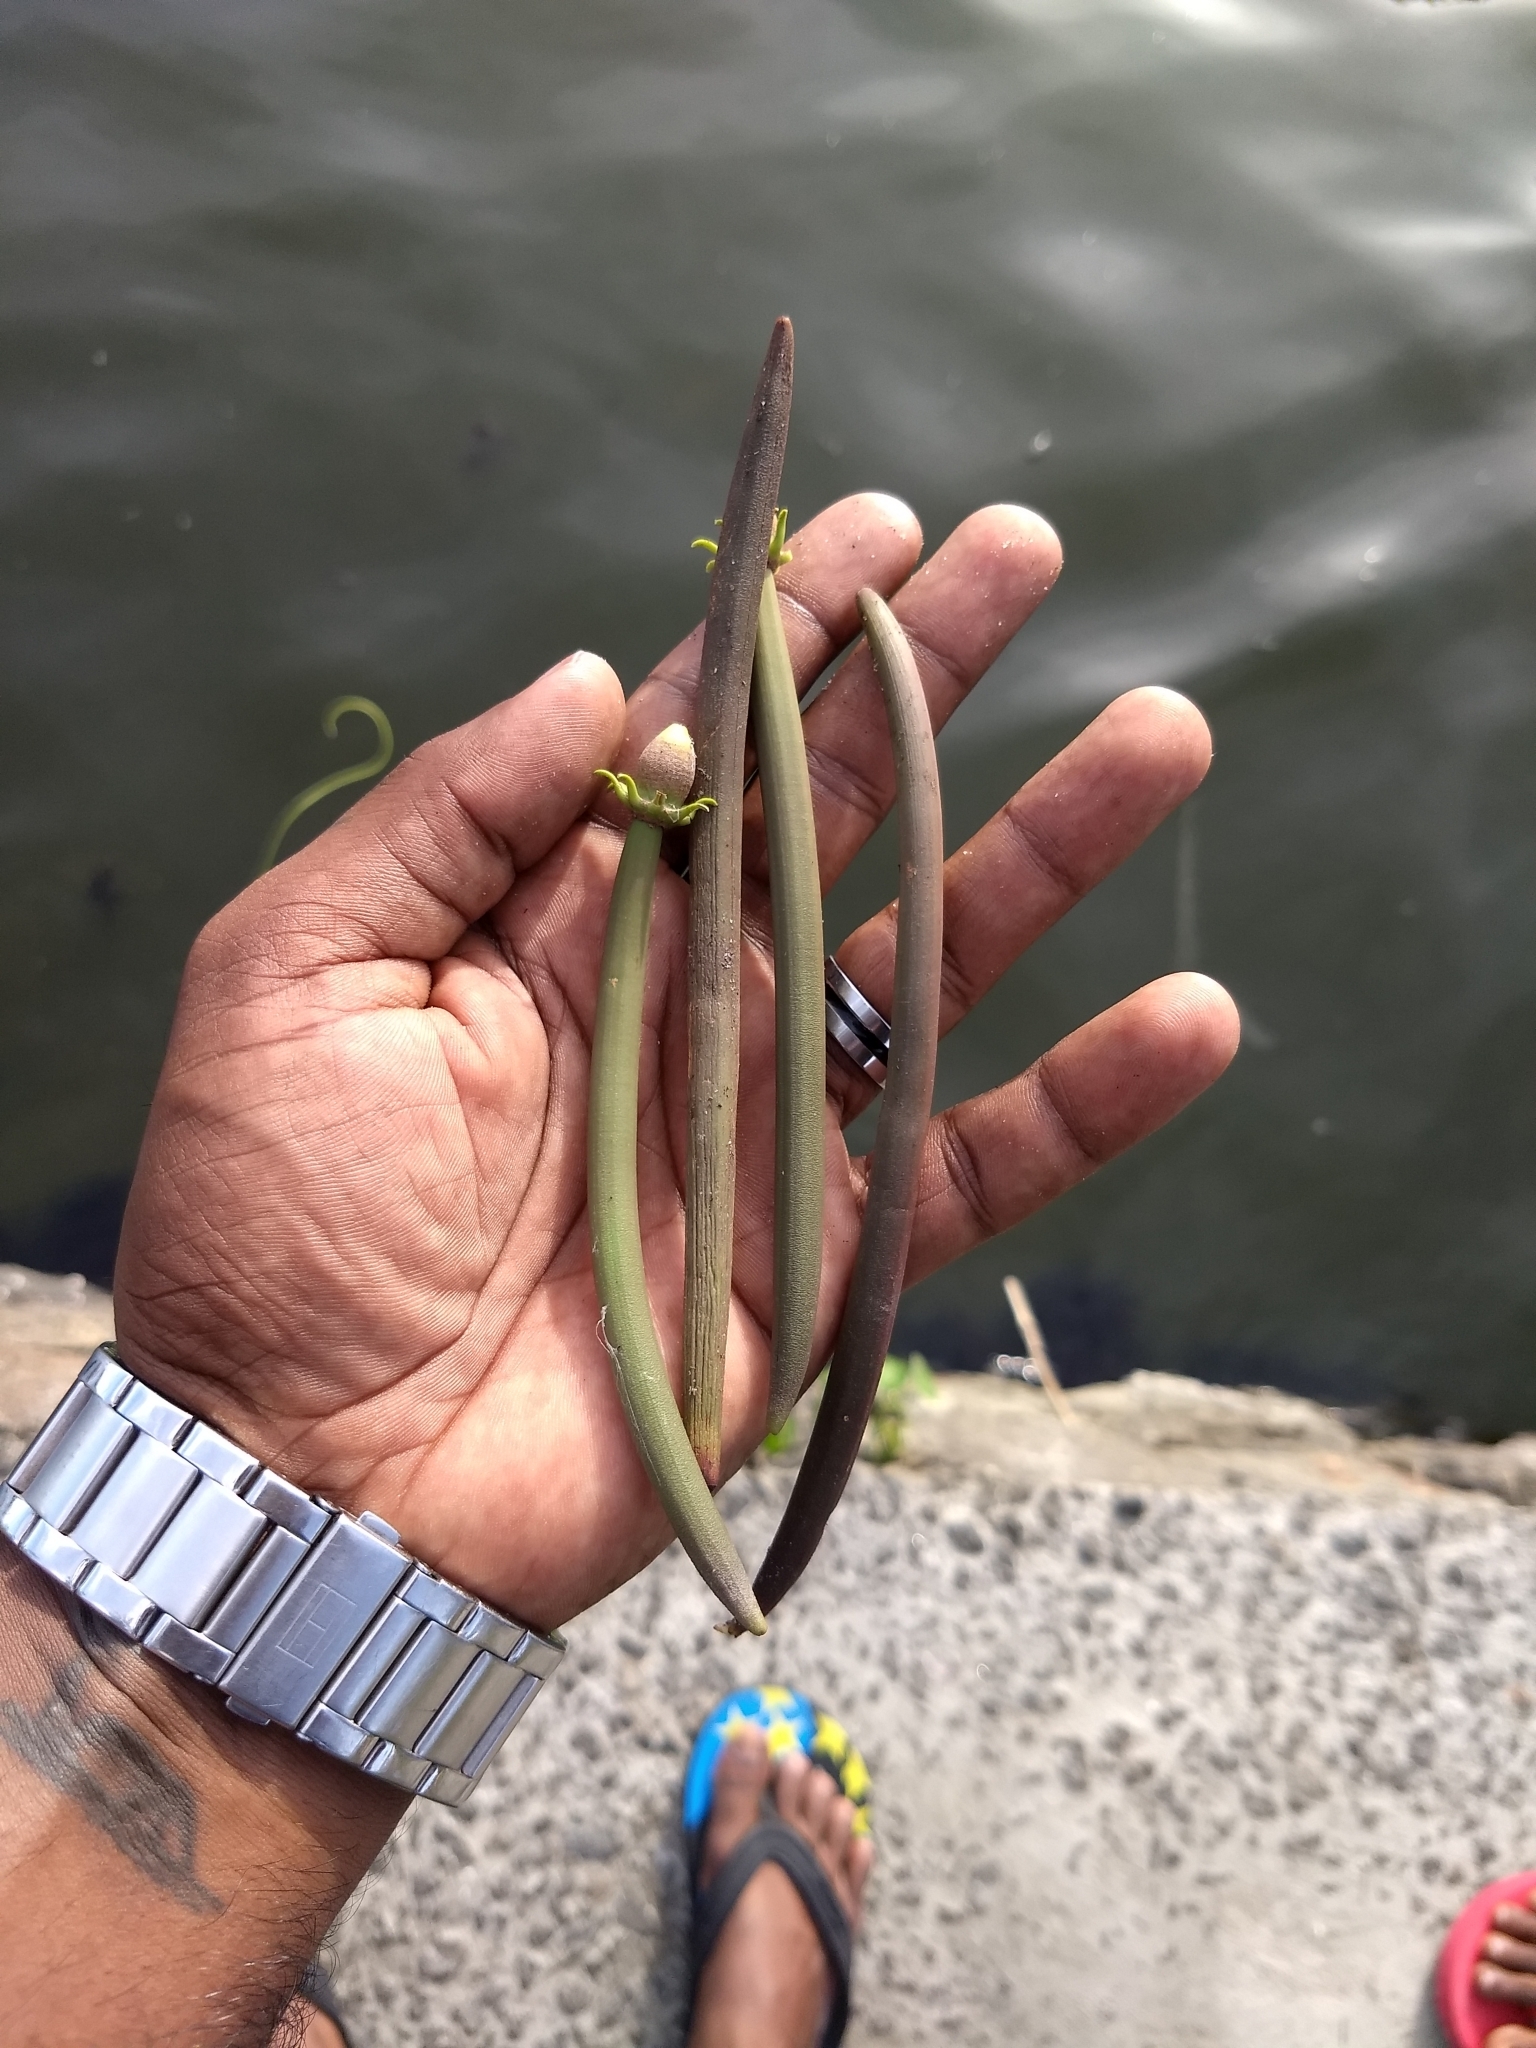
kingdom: Plantae
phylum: Tracheophyta
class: Magnoliopsida
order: Malpighiales
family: Rhizophoraceae
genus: Bruguiera
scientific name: Bruguiera cylindrica
